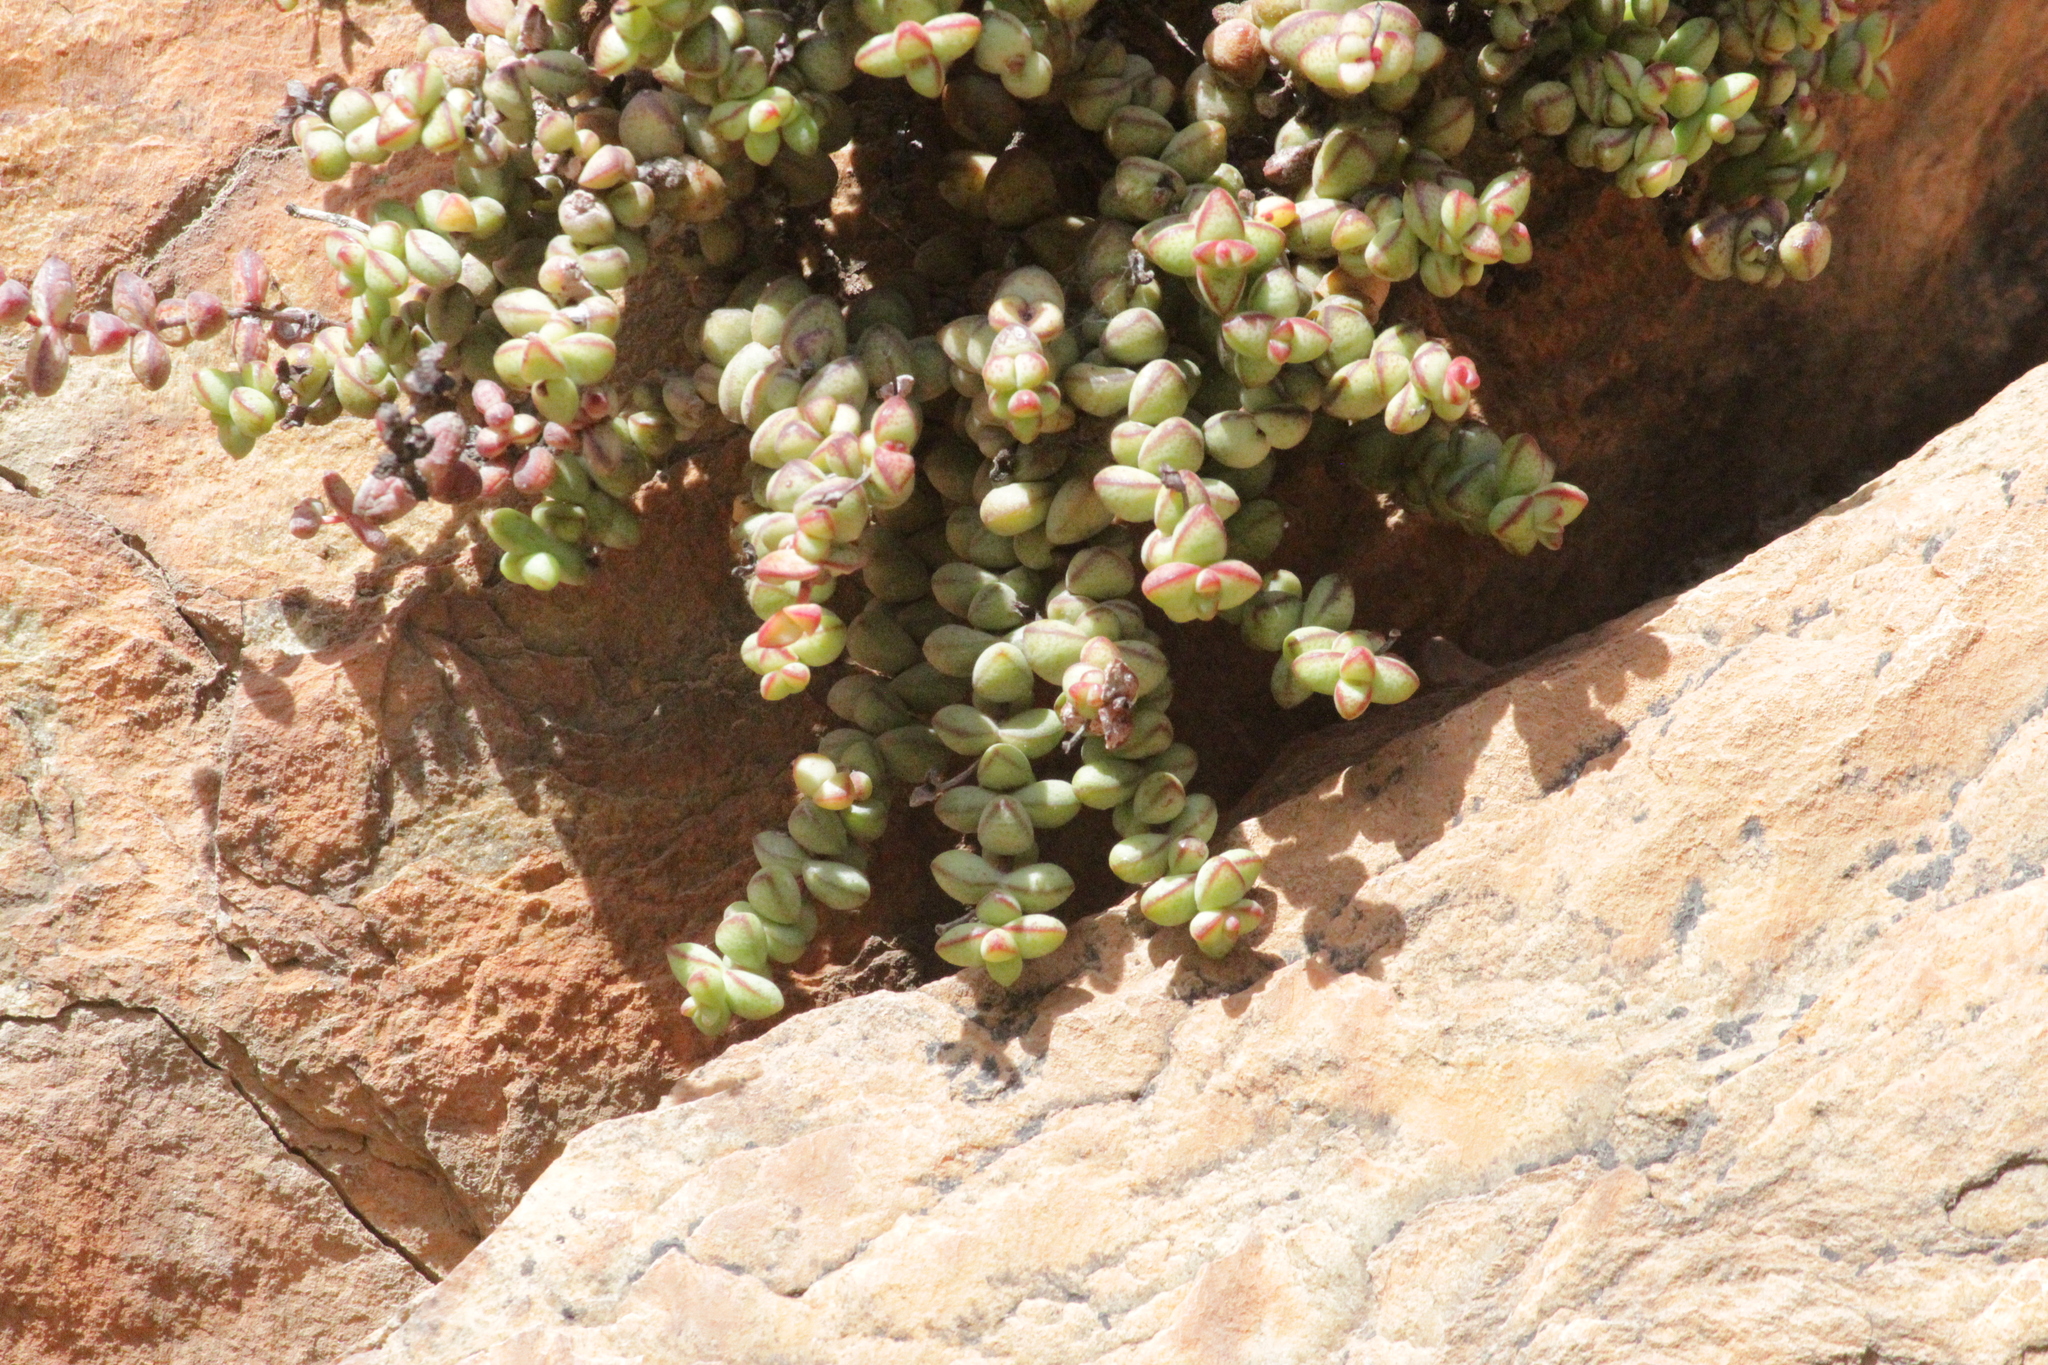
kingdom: Plantae
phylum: Tracheophyta
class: Magnoliopsida
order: Saxifragales
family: Crassulaceae
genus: Crassula
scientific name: Crassula rupestris
